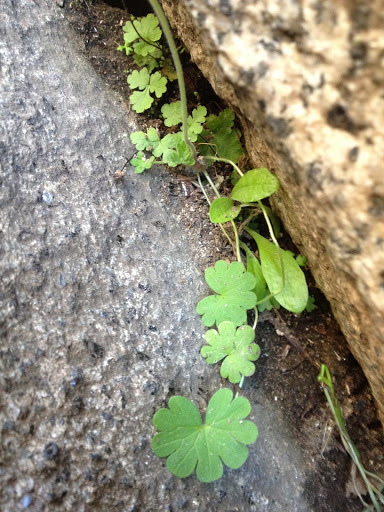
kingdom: Plantae
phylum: Tracheophyta
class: Magnoliopsida
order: Geraniales
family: Geraniaceae
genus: Geranium
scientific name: Geranium
